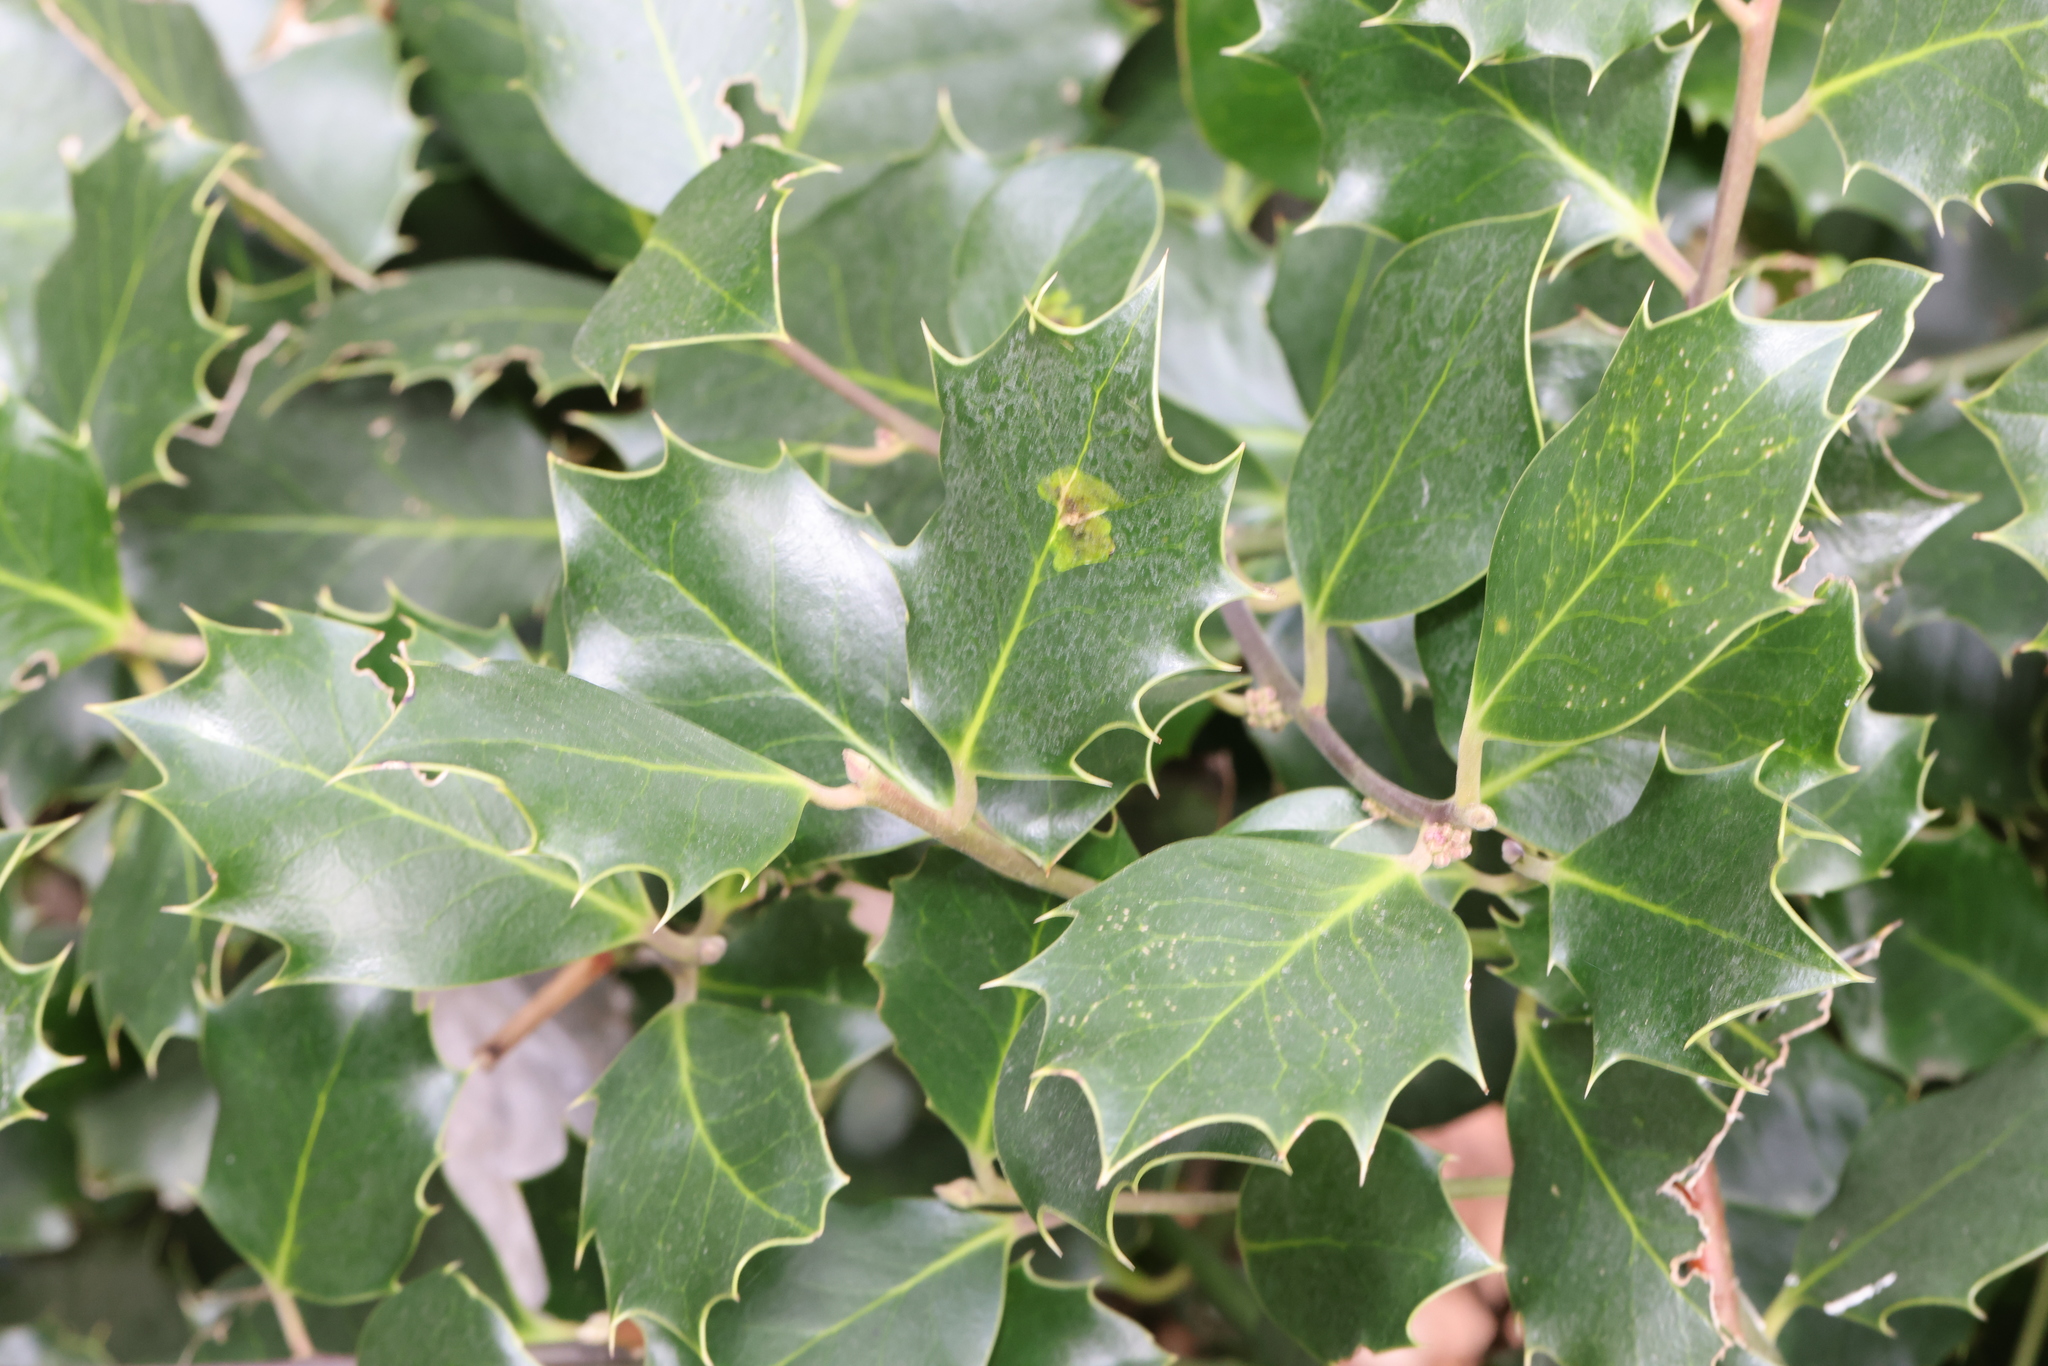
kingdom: Plantae
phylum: Tracheophyta
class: Magnoliopsida
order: Aquifoliales
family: Aquifoliaceae
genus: Ilex
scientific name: Ilex aquifolium
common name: English holly
